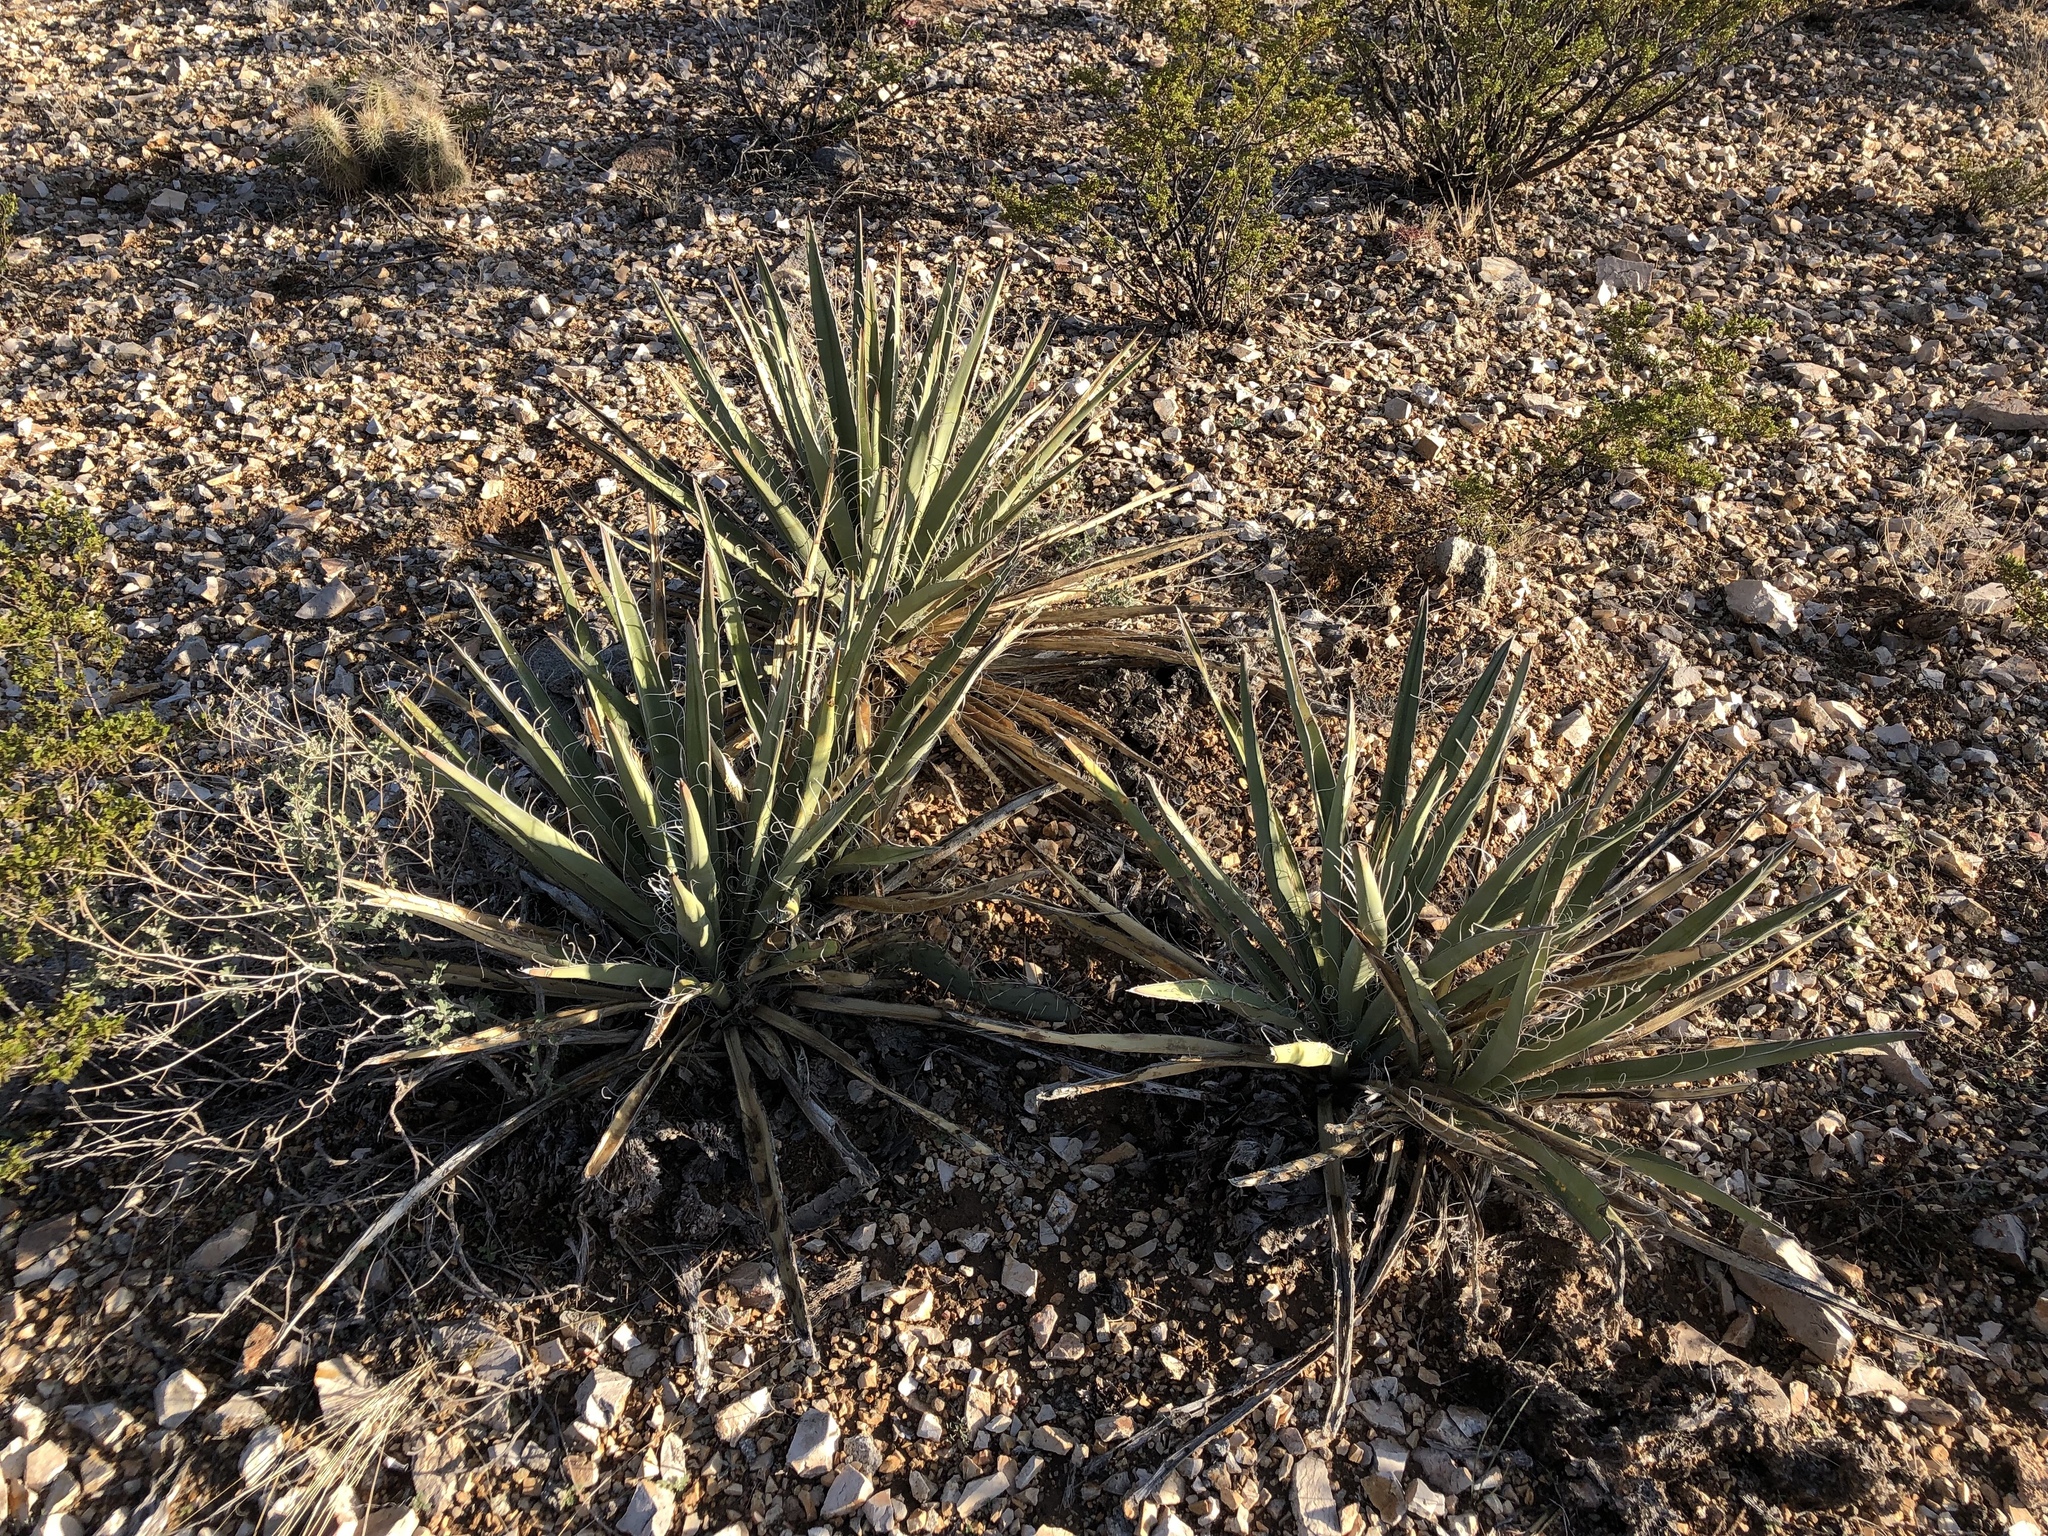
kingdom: Plantae
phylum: Tracheophyta
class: Liliopsida
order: Asparagales
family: Asparagaceae
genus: Yucca
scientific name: Yucca baccata
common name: Banana yucca
